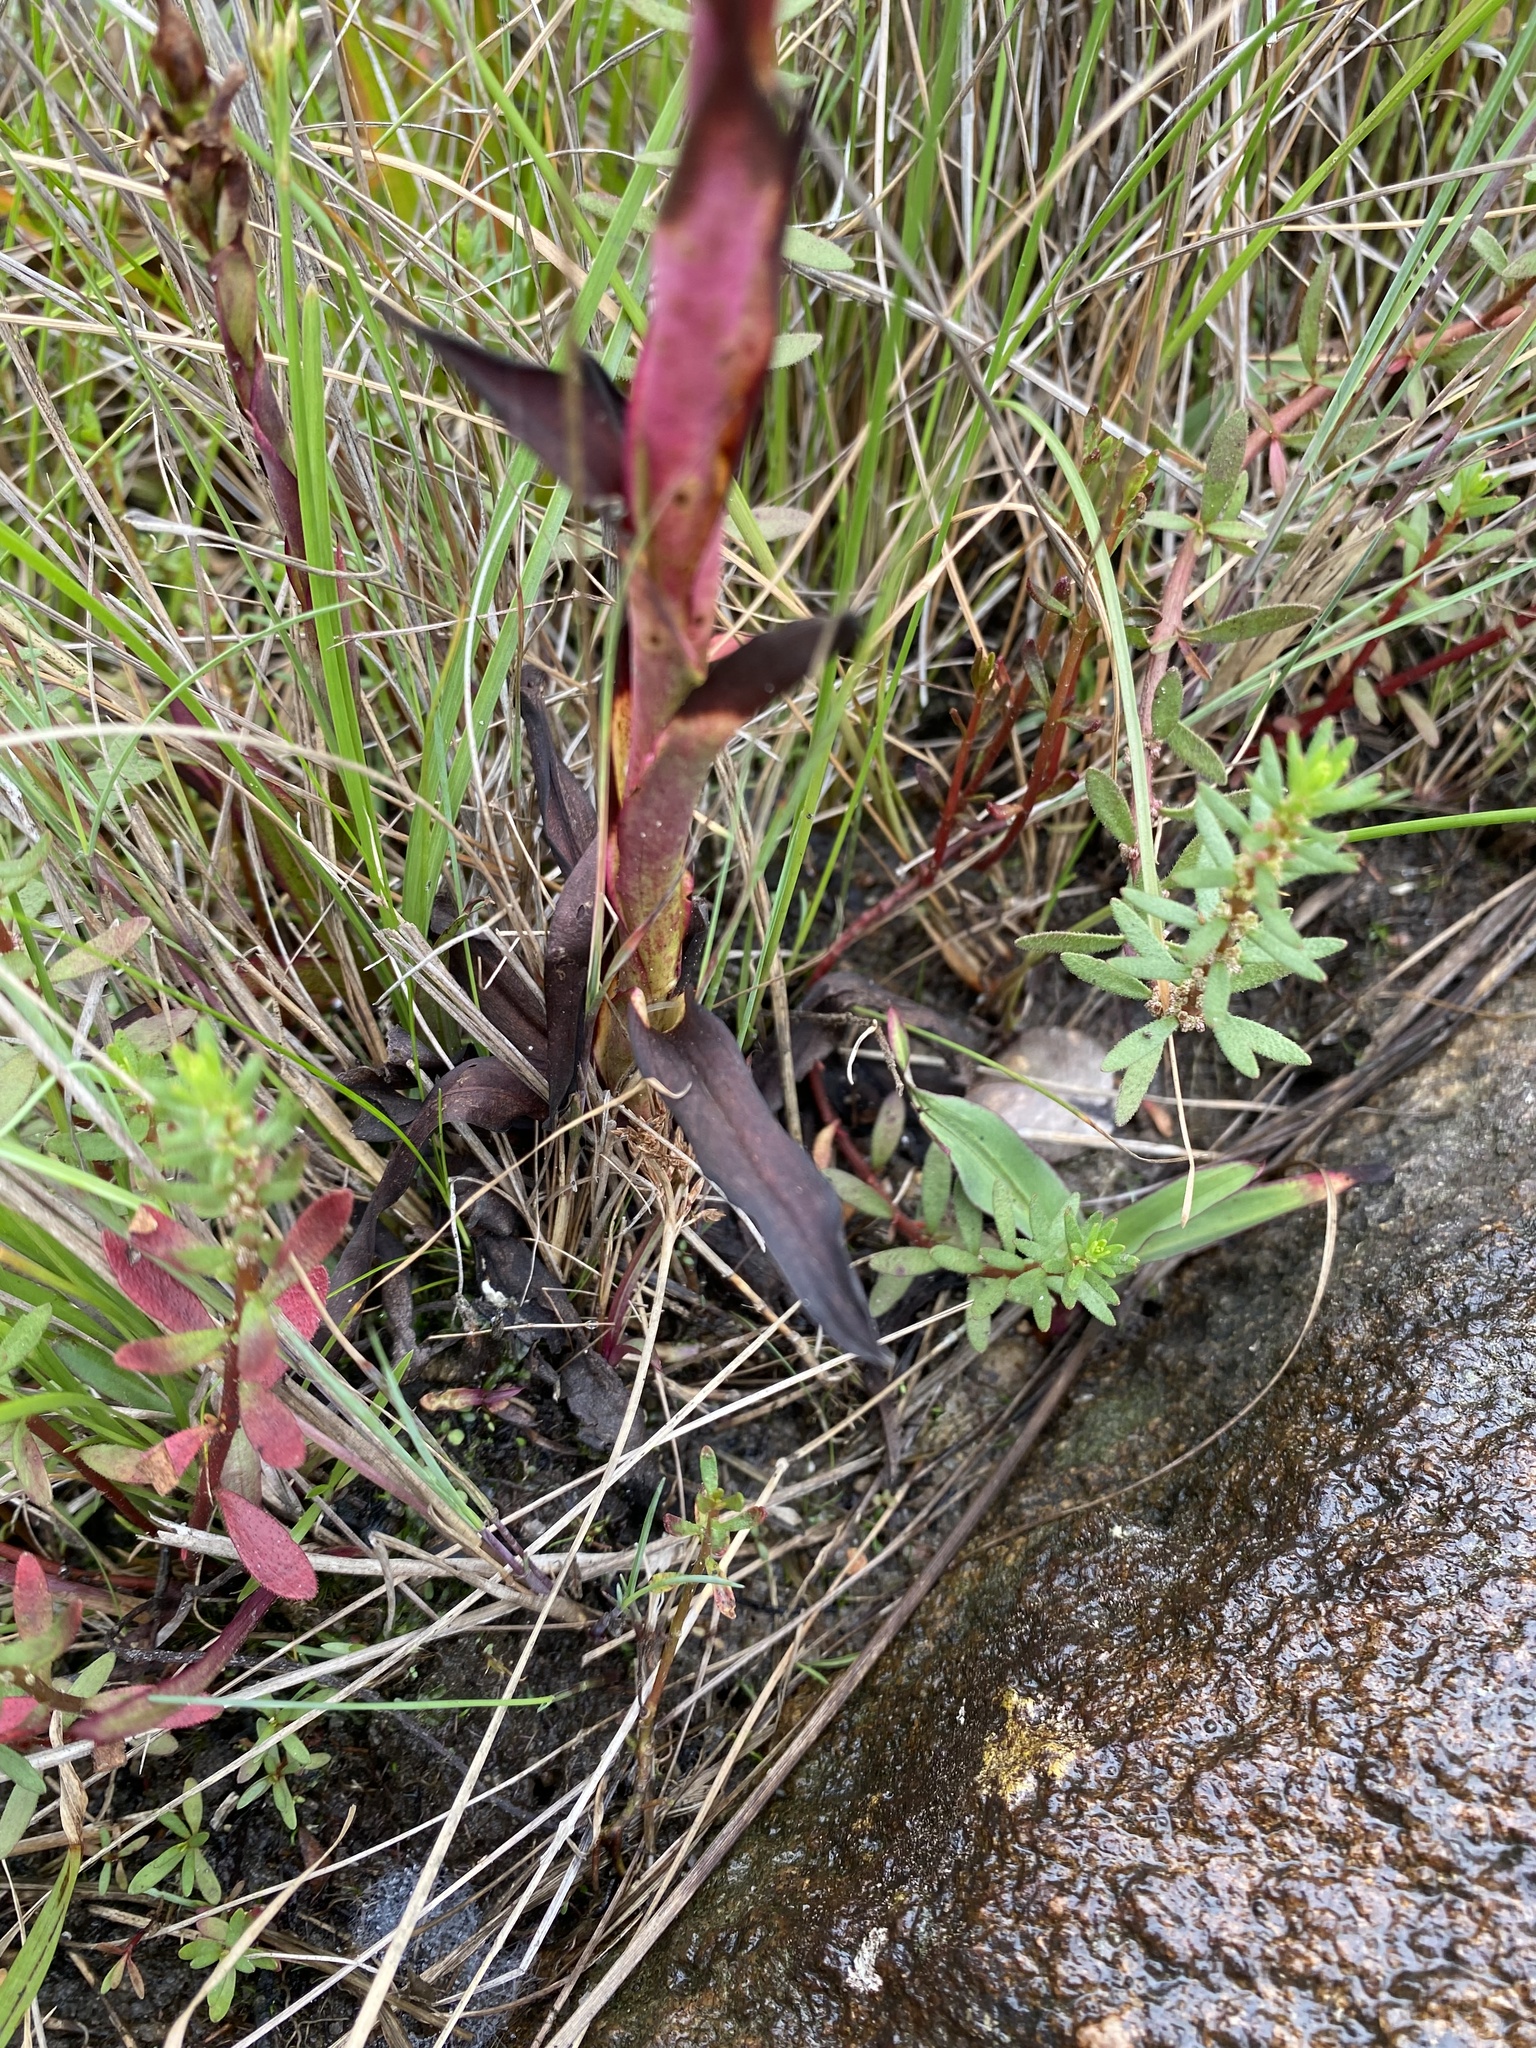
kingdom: Plantae
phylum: Tracheophyta
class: Liliopsida
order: Asparagales
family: Orchidaceae
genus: Disa
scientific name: Disa woodii
